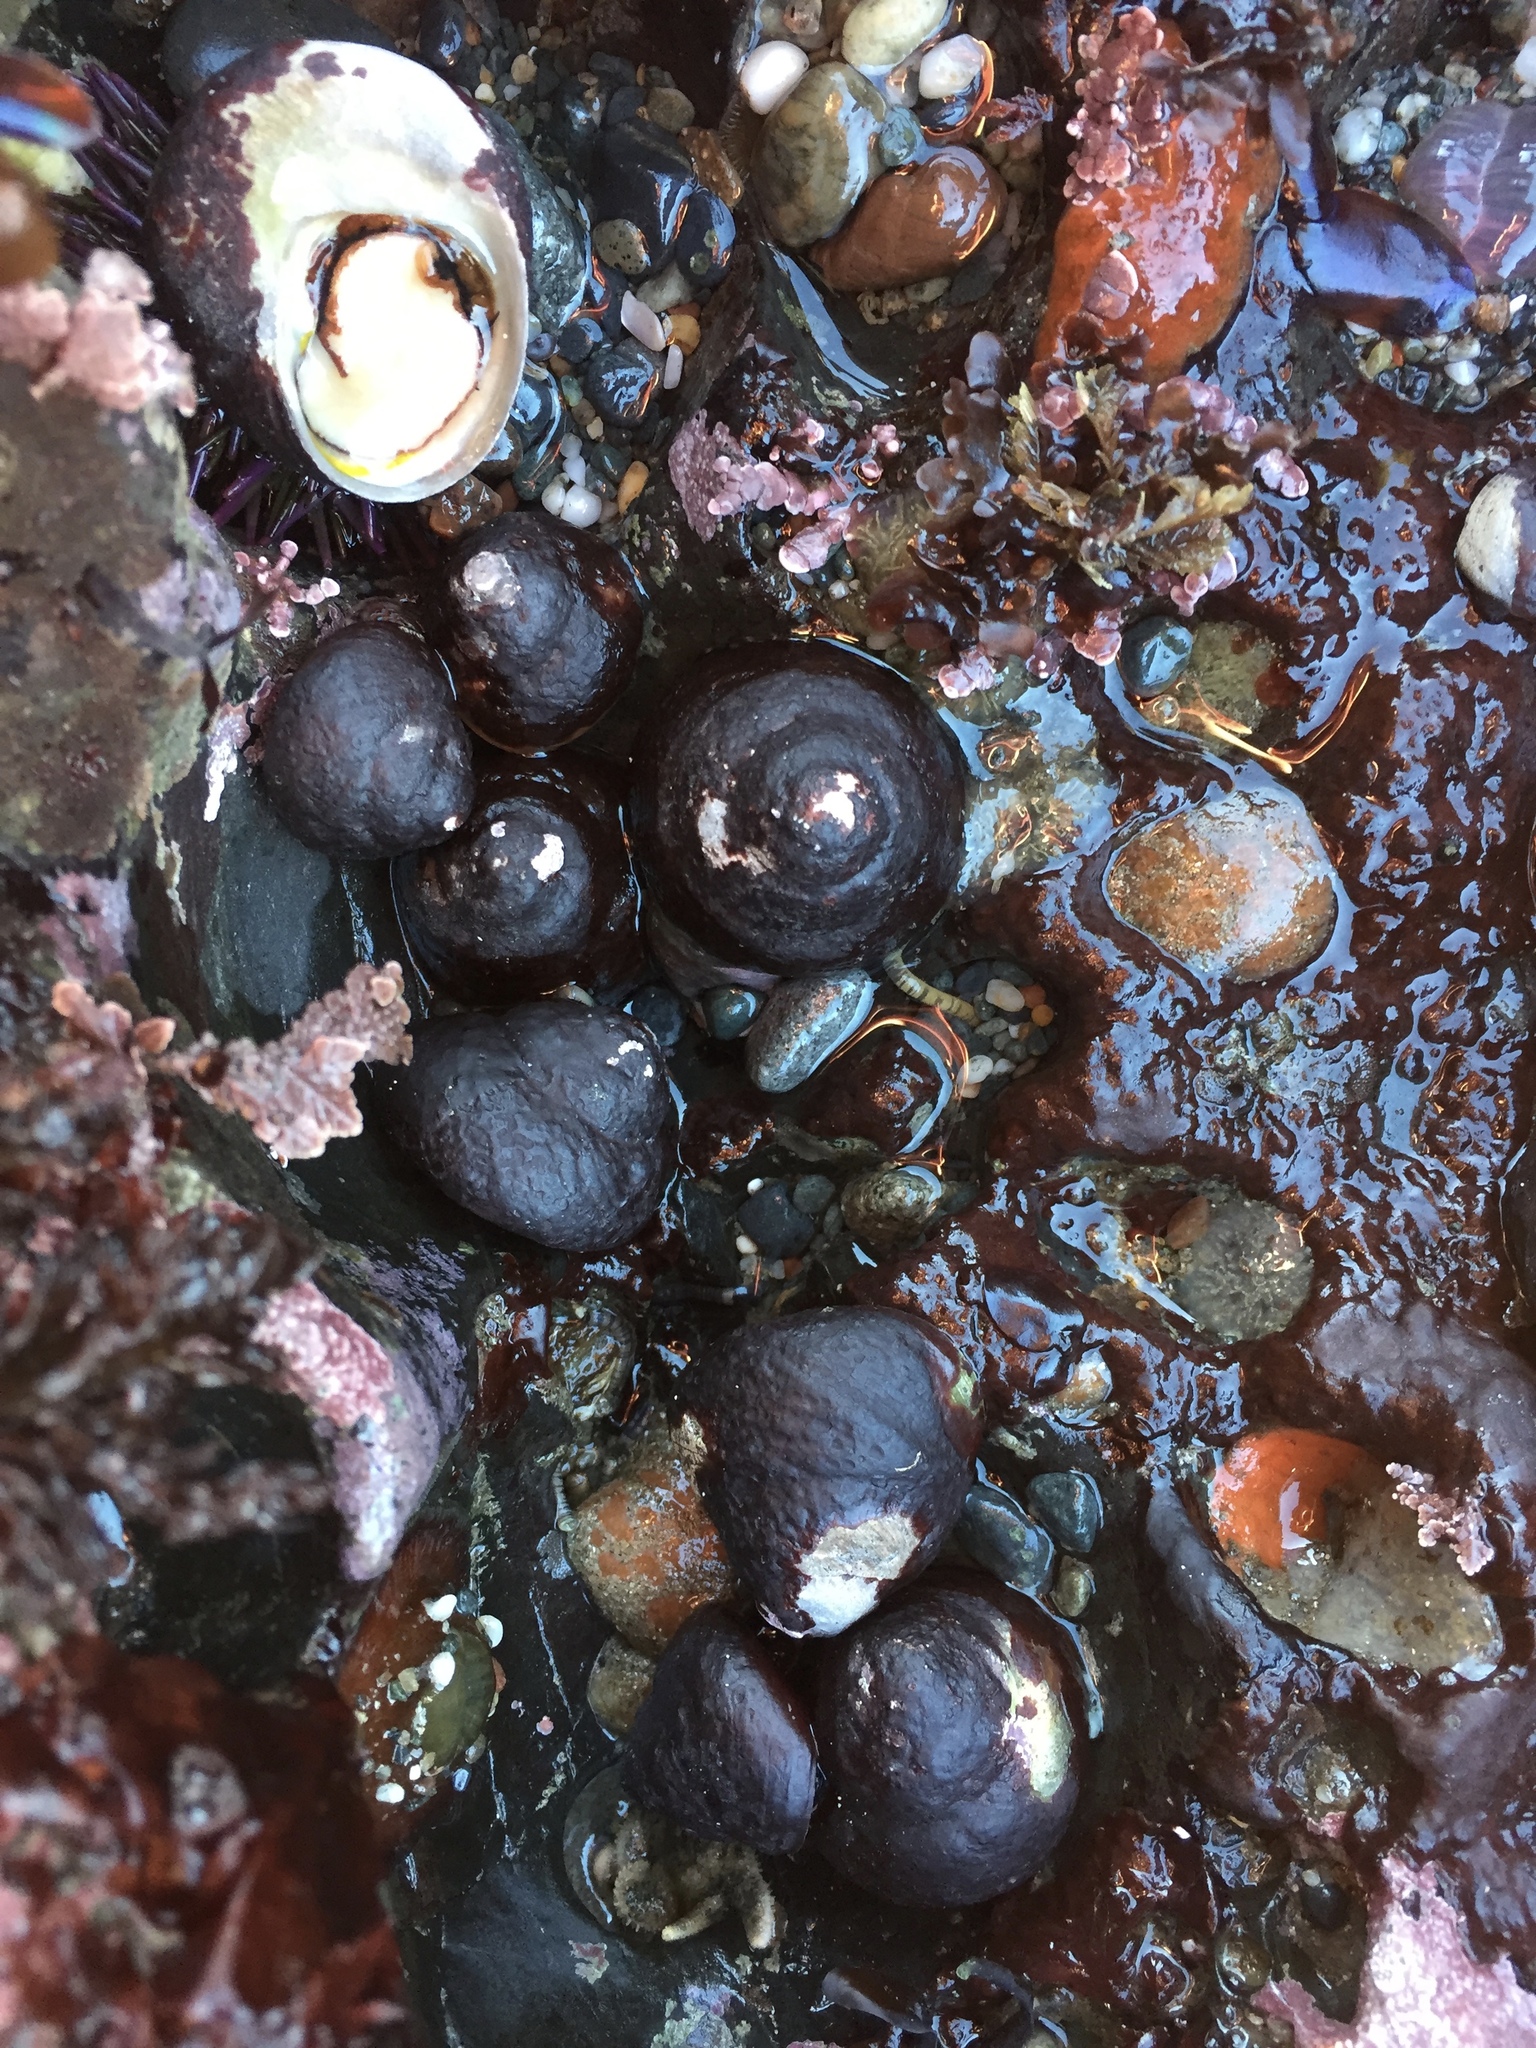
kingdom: Animalia
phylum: Mollusca
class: Gastropoda
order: Trochida
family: Tegulidae
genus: Tegula
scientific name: Tegula funebralis
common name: Black tegula
